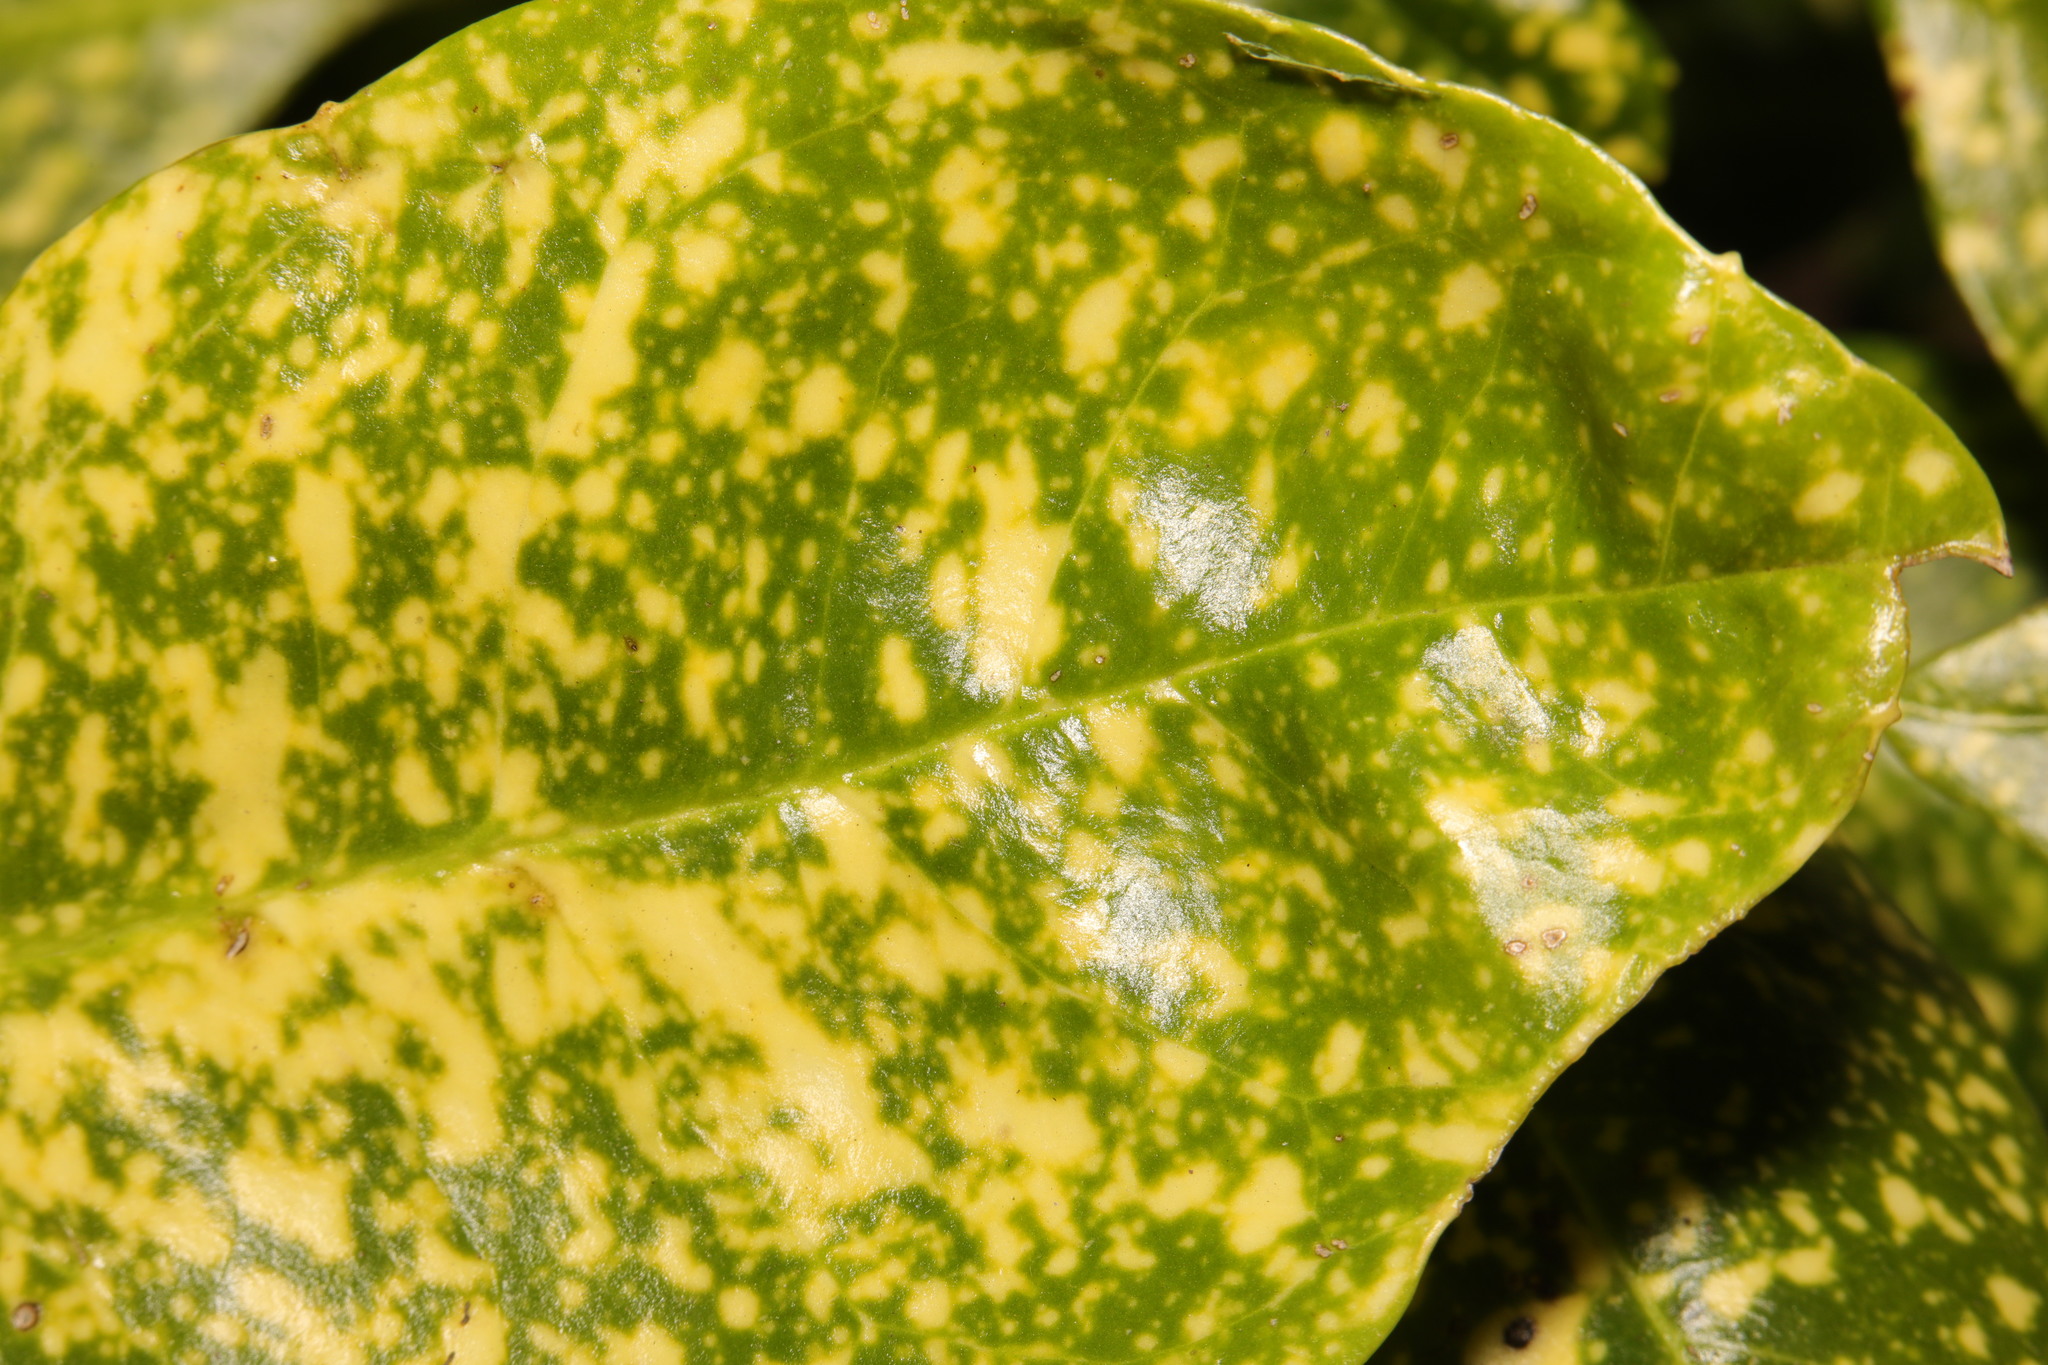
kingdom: Plantae
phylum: Tracheophyta
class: Magnoliopsida
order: Garryales
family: Garryaceae
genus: Aucuba
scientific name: Aucuba japonica
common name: Spotted-laurel
